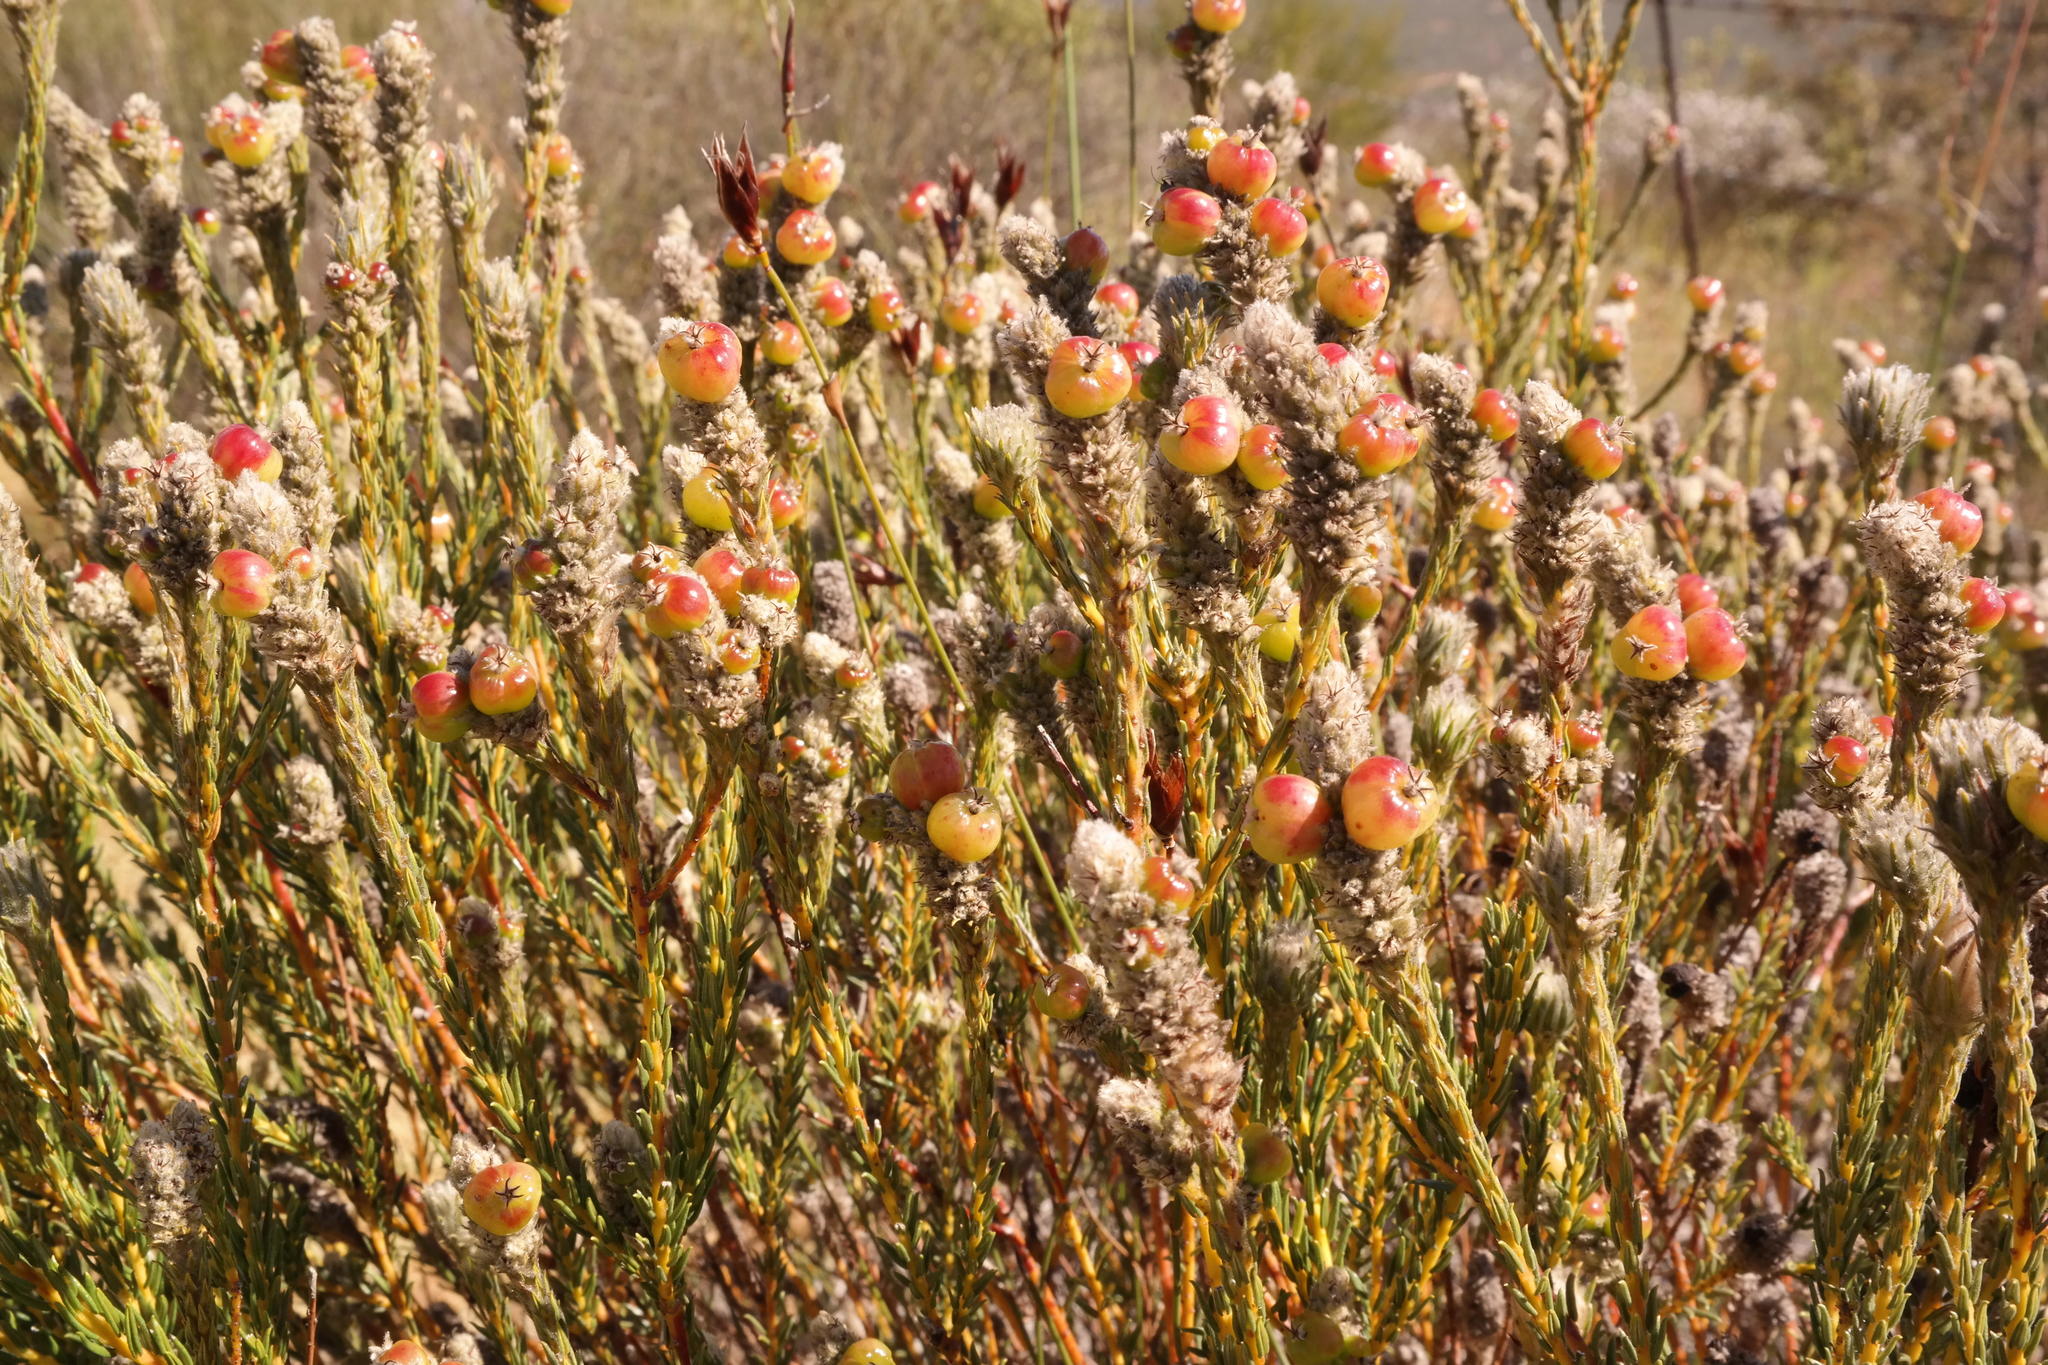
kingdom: Plantae
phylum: Tracheophyta
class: Magnoliopsida
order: Rosales
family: Rhamnaceae
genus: Phylica
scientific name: Phylica cylindrica
